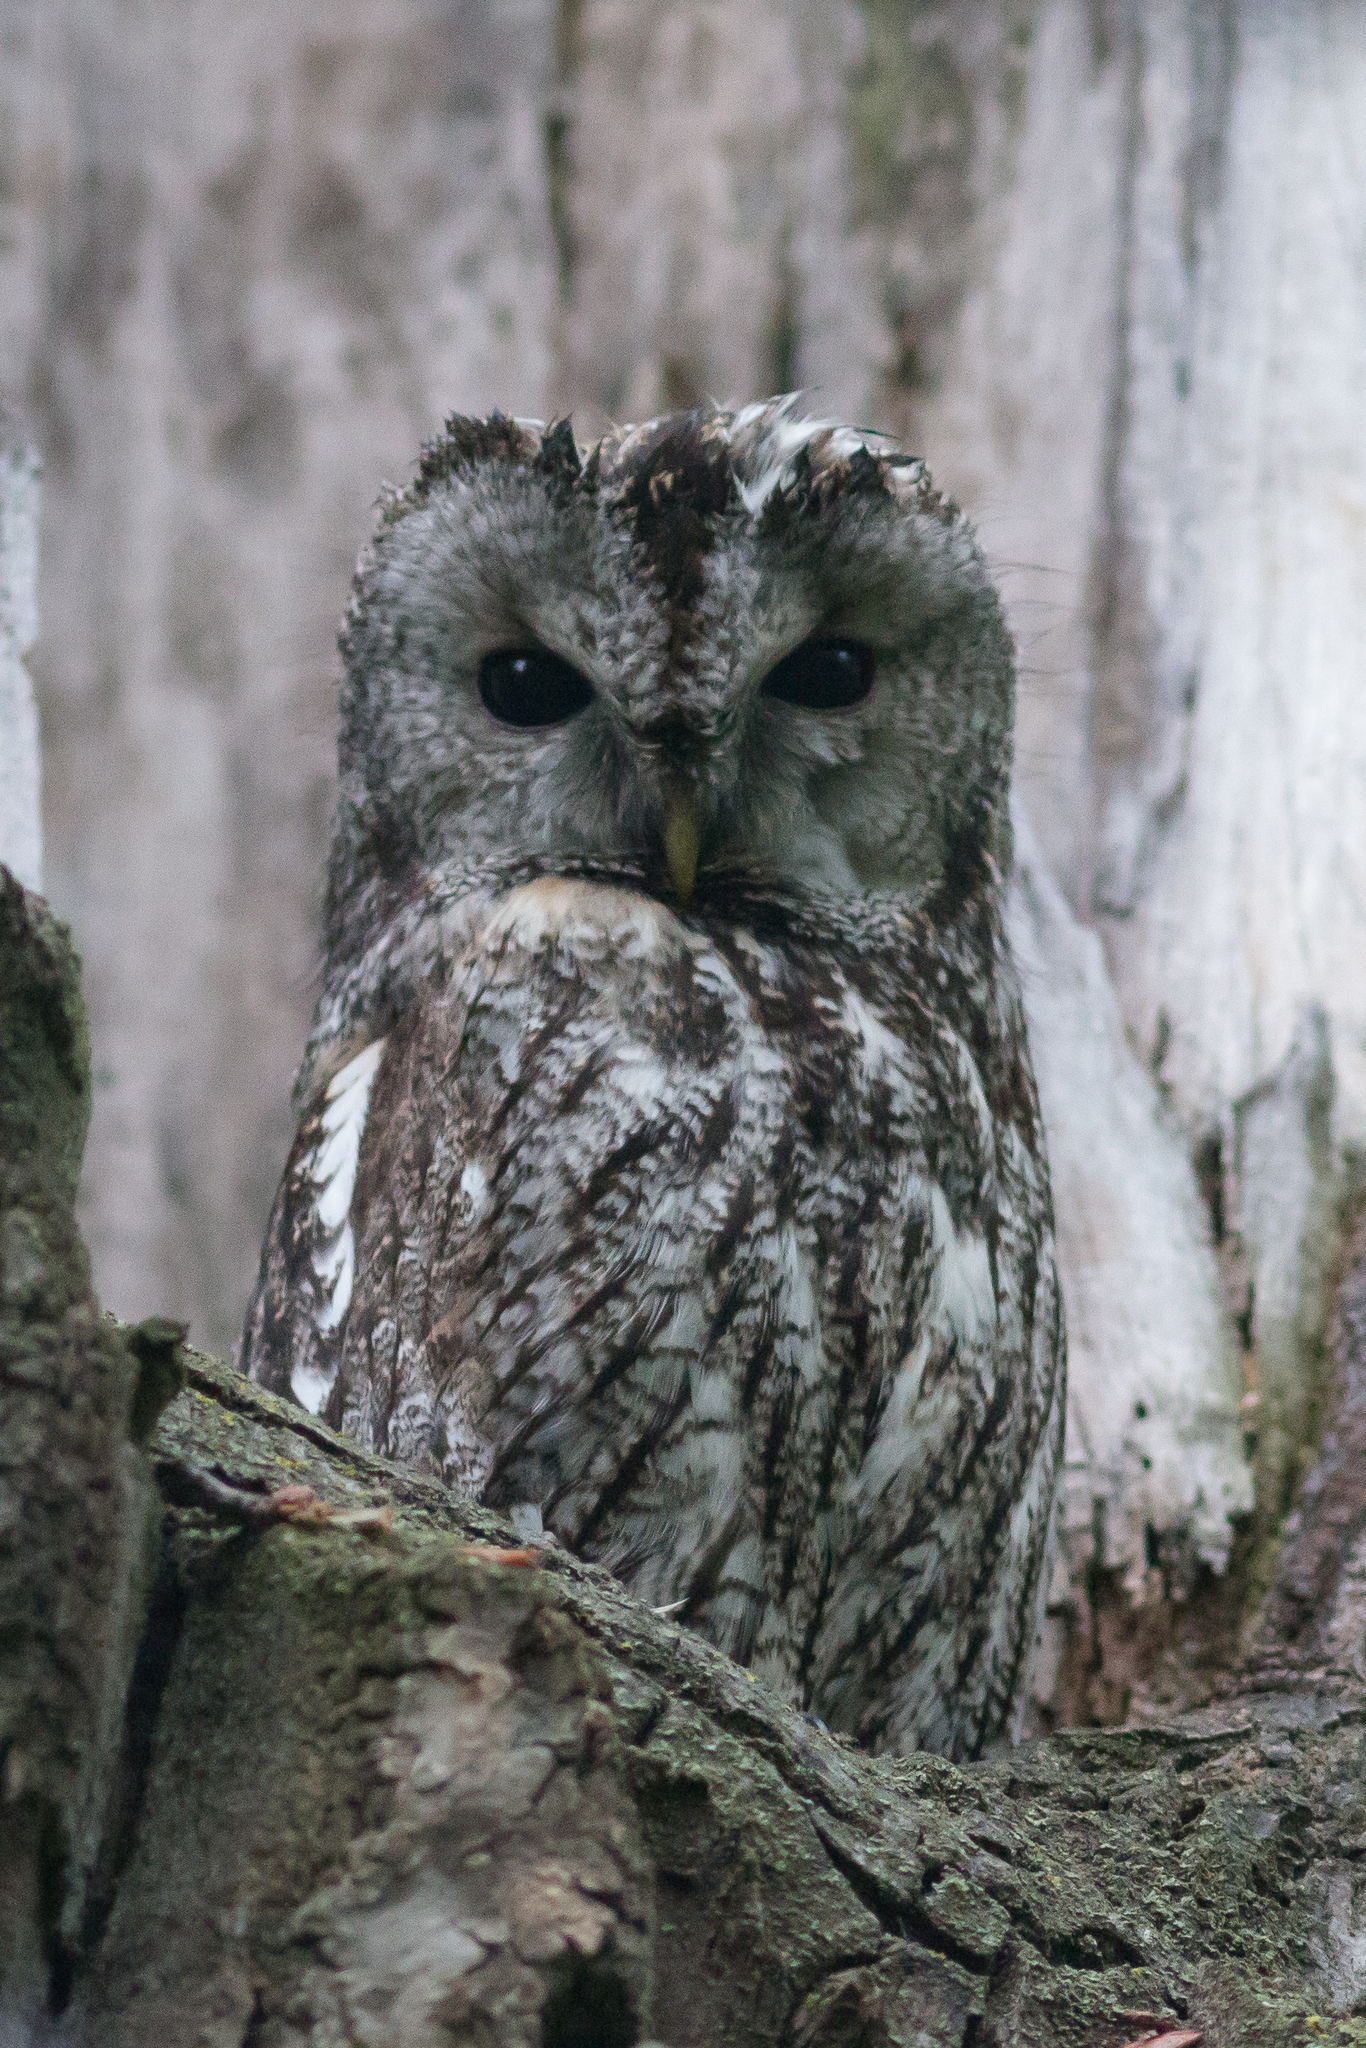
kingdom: Animalia
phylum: Chordata
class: Aves
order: Strigiformes
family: Strigidae
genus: Strix
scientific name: Strix aluco
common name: Tawny owl
